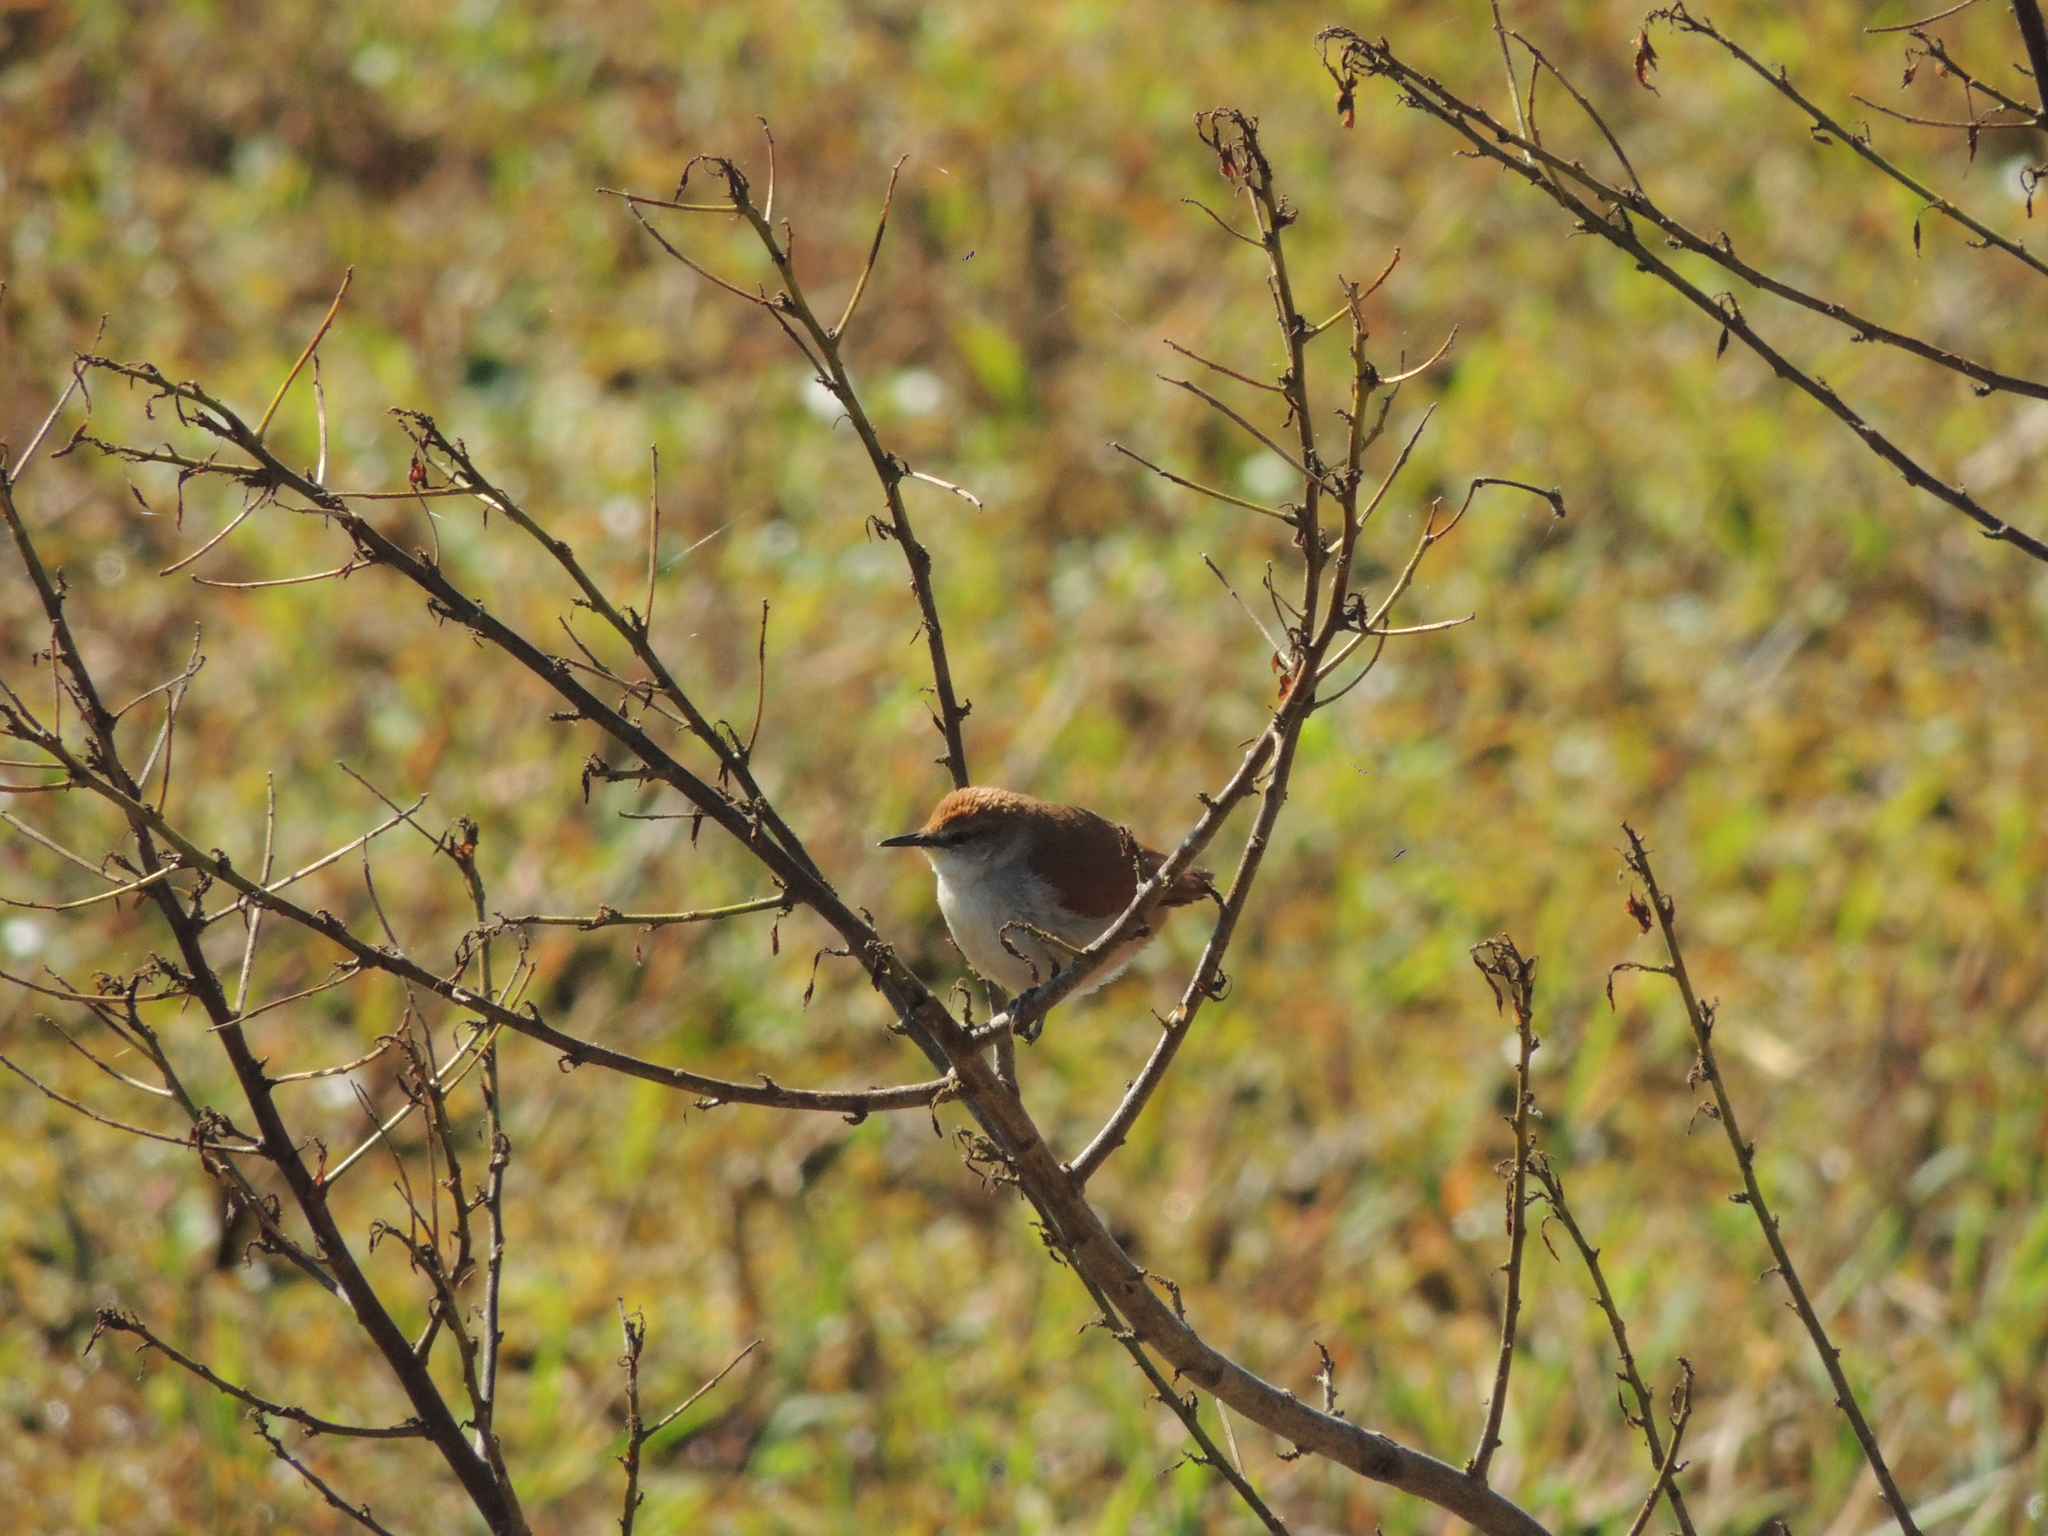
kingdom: Animalia
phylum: Chordata
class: Aves
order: Passeriformes
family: Furnariidae
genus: Certhiaxis
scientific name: Certhiaxis cinnamomeus
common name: Yellow-chinned spinetail
